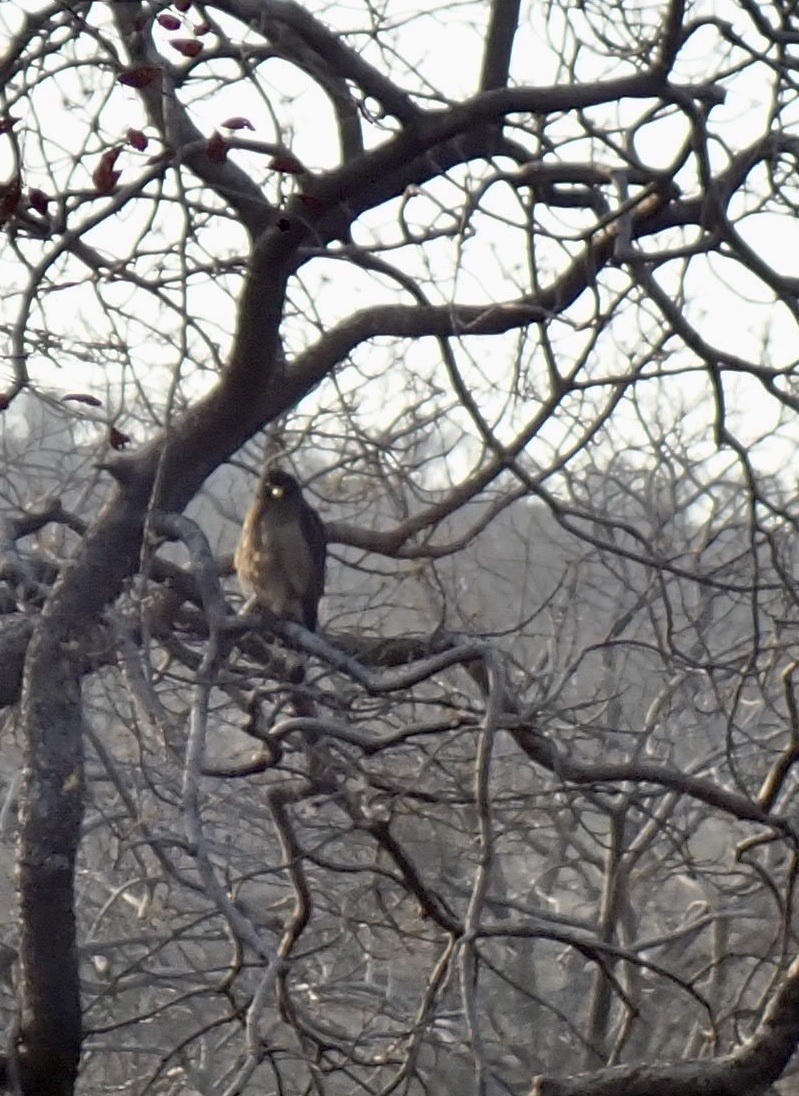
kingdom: Animalia
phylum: Chordata
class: Aves
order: Accipitriformes
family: Accipitridae
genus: Spilornis
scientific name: Spilornis cheela
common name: Crested serpent eagle
